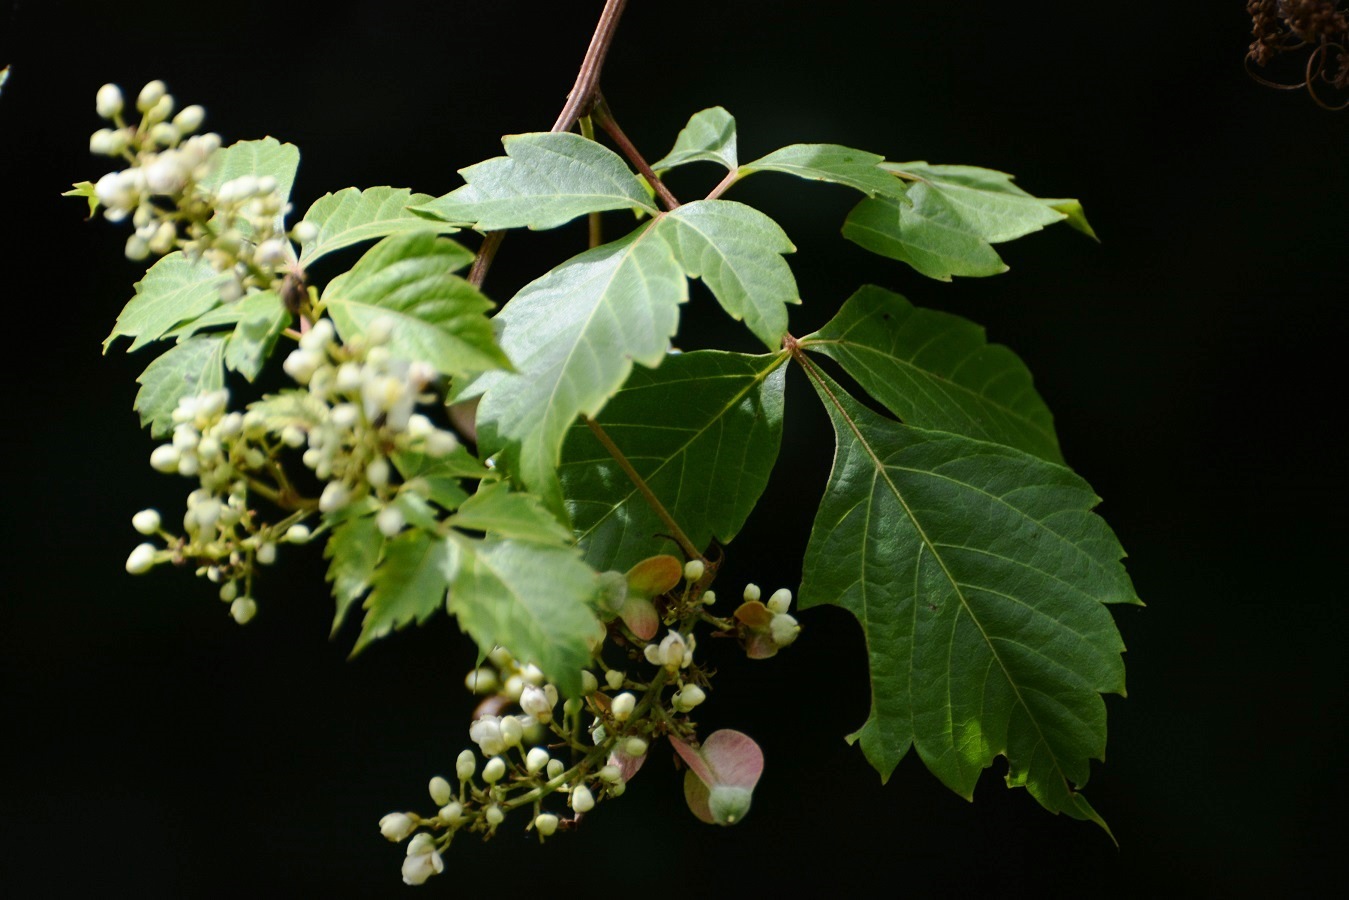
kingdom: Plantae
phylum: Tracheophyta
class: Magnoliopsida
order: Sapindales
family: Sapindaceae
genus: Serjania
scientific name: Serjania racemosa
